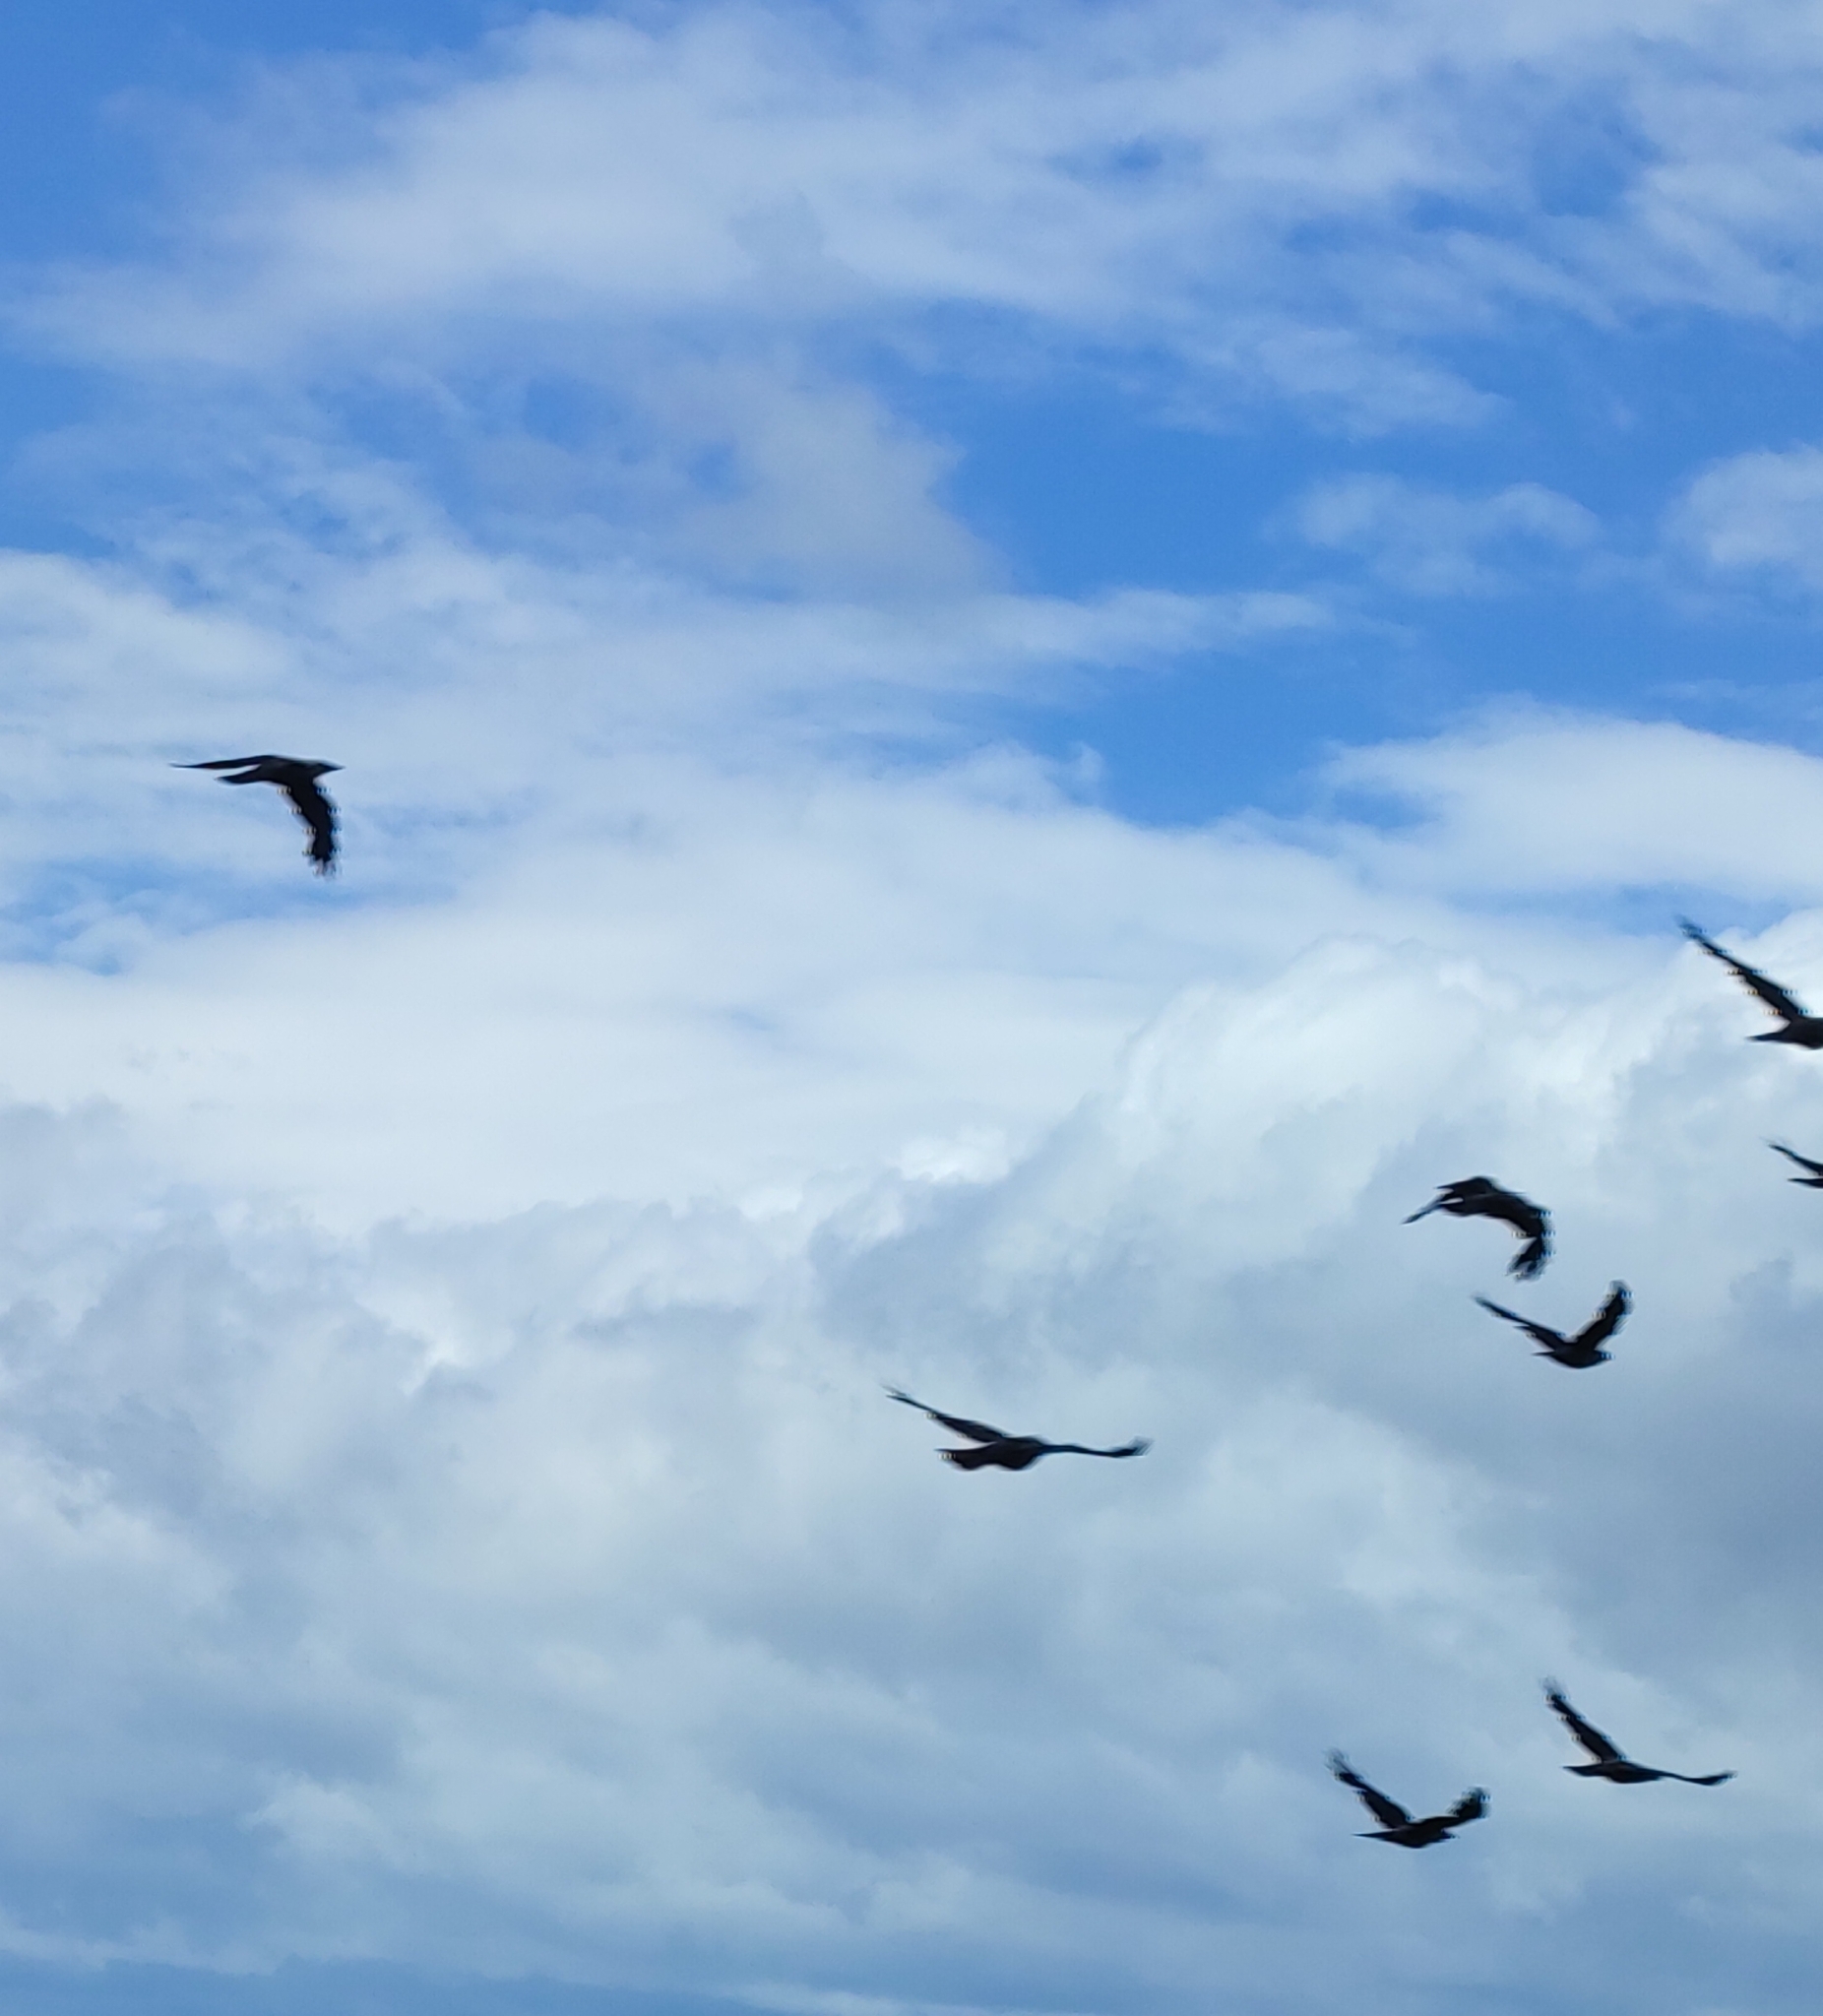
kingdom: Animalia
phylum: Chordata
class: Aves
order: Passeriformes
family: Corvidae
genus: Corvus
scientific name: Corvus frugilegus
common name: Rook
